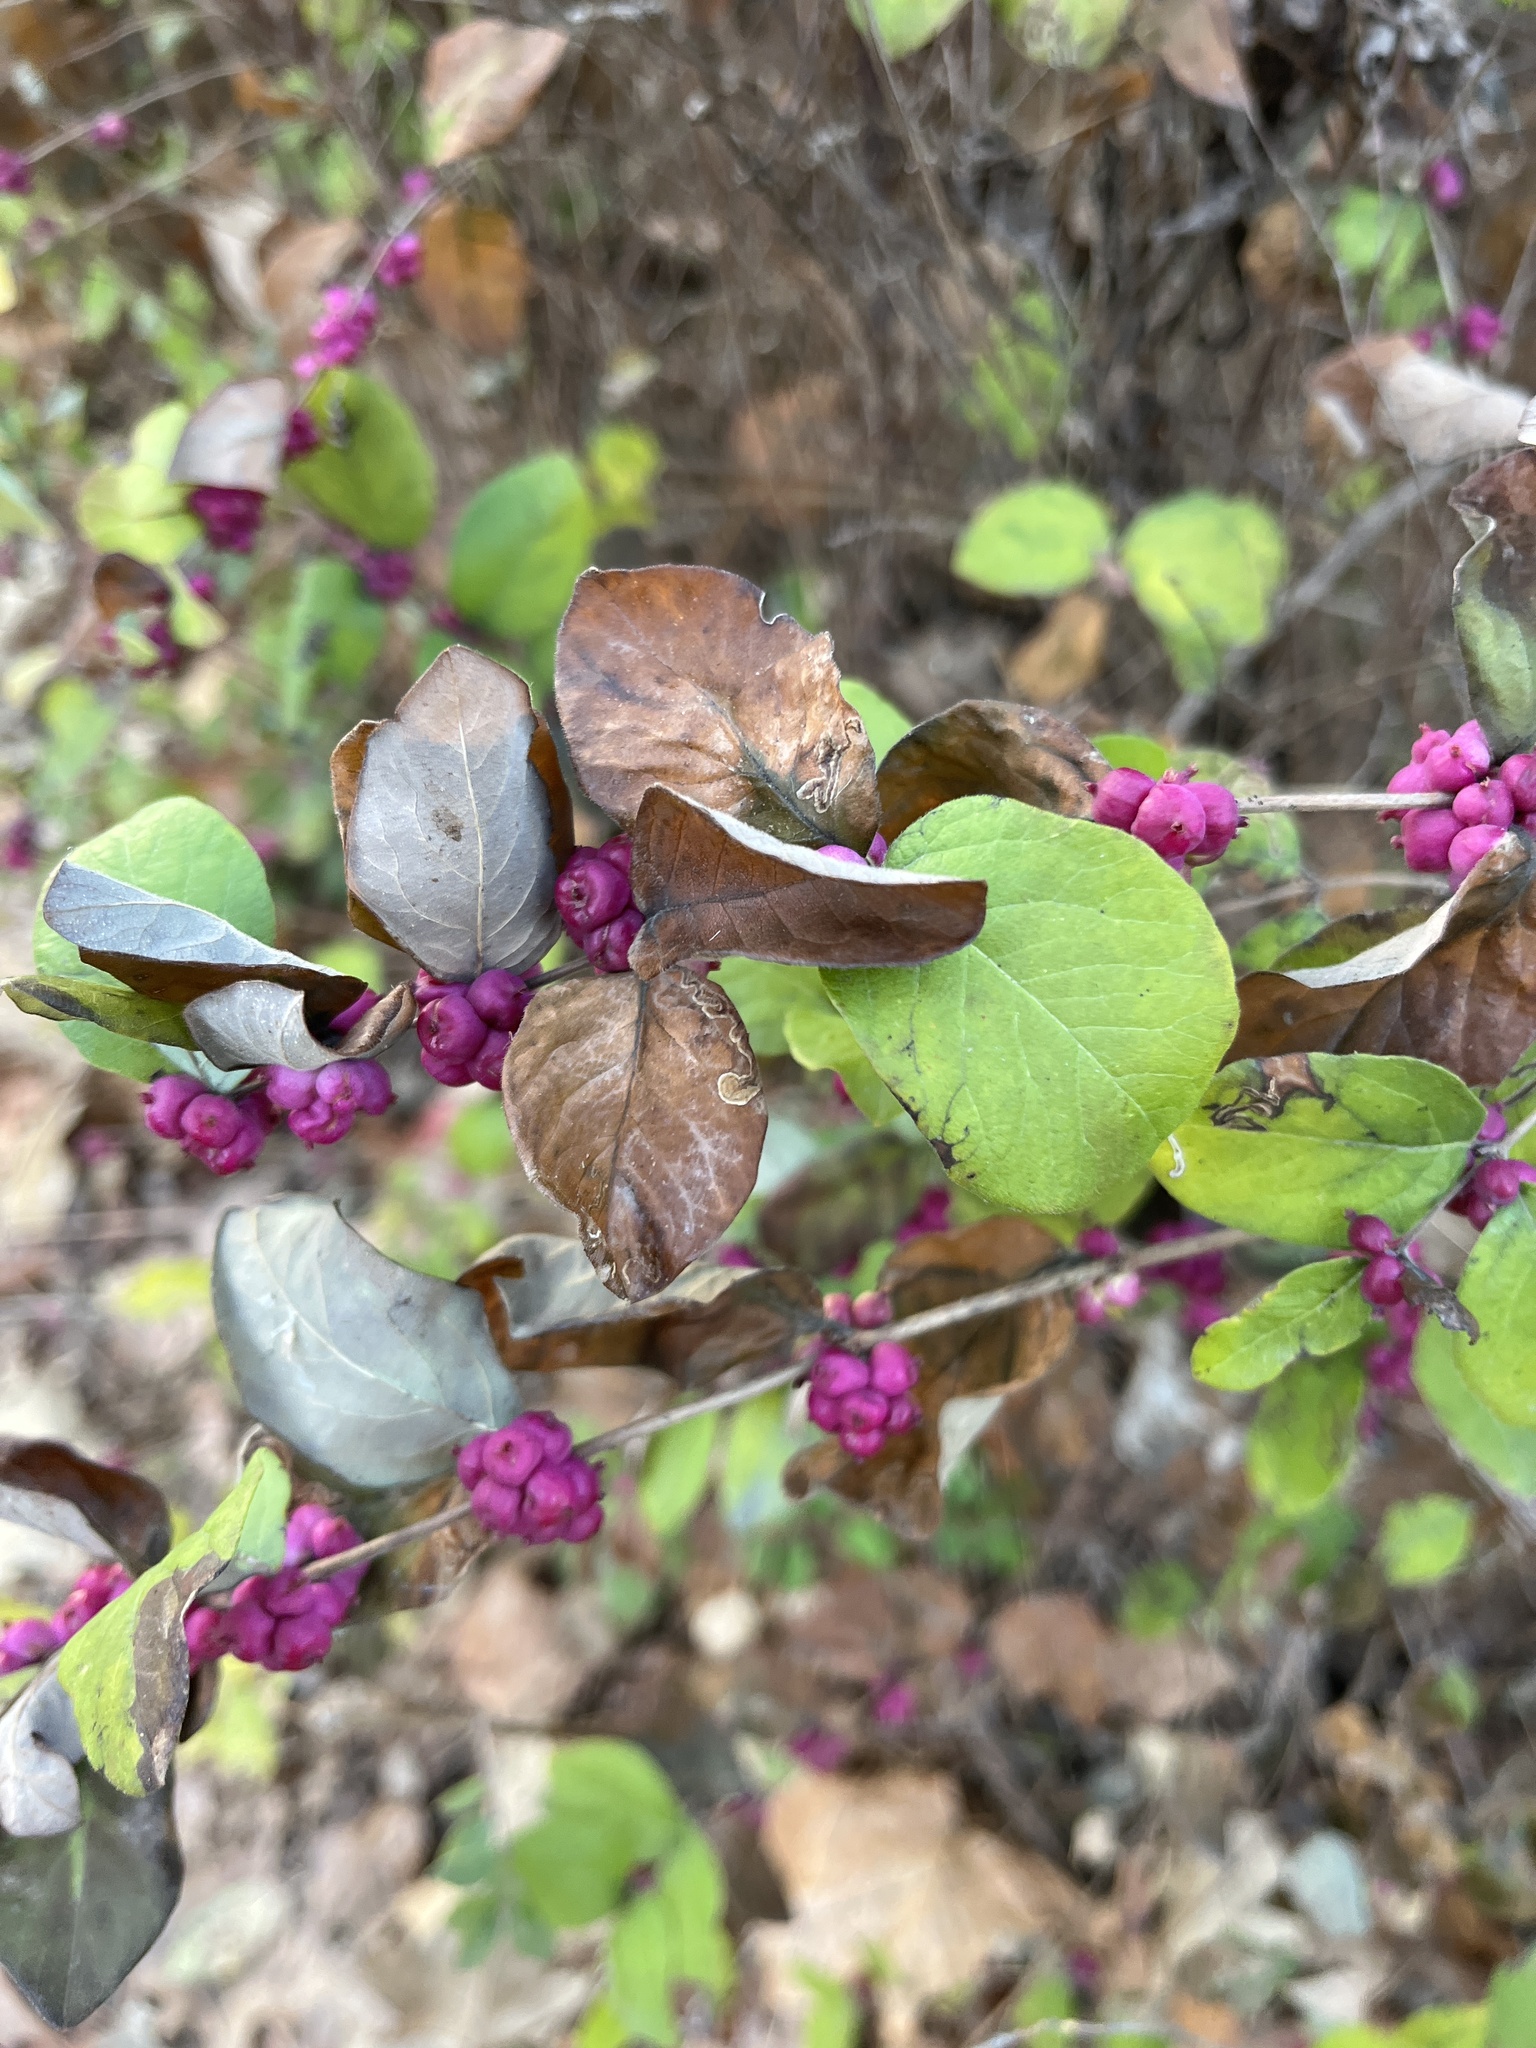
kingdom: Plantae
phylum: Tracheophyta
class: Magnoliopsida
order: Dipsacales
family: Caprifoliaceae
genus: Symphoricarpos
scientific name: Symphoricarpos orbiculatus
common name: Coralberry
